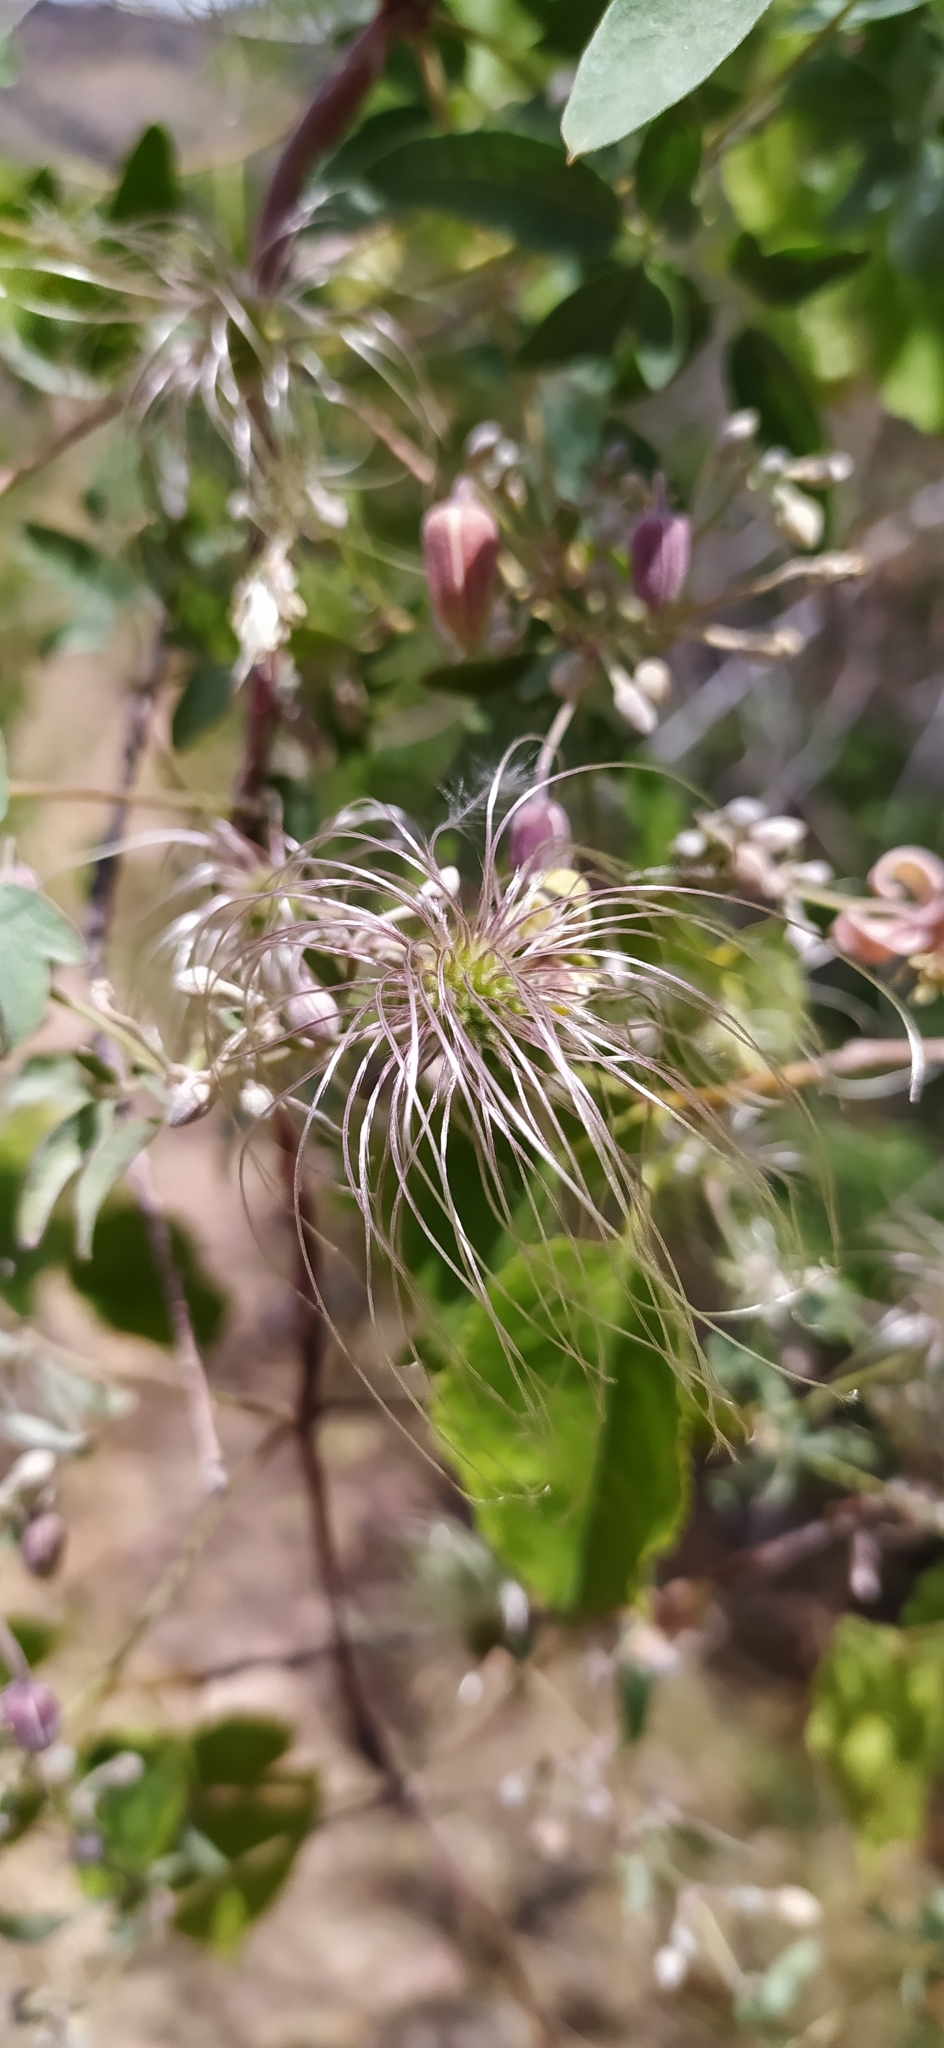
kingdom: Plantae
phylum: Tracheophyta
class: Magnoliopsida
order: Ranunculales
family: Ranunculaceae
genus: Clematis
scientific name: Clematis orientalis
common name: Oriental virgin's-bower
